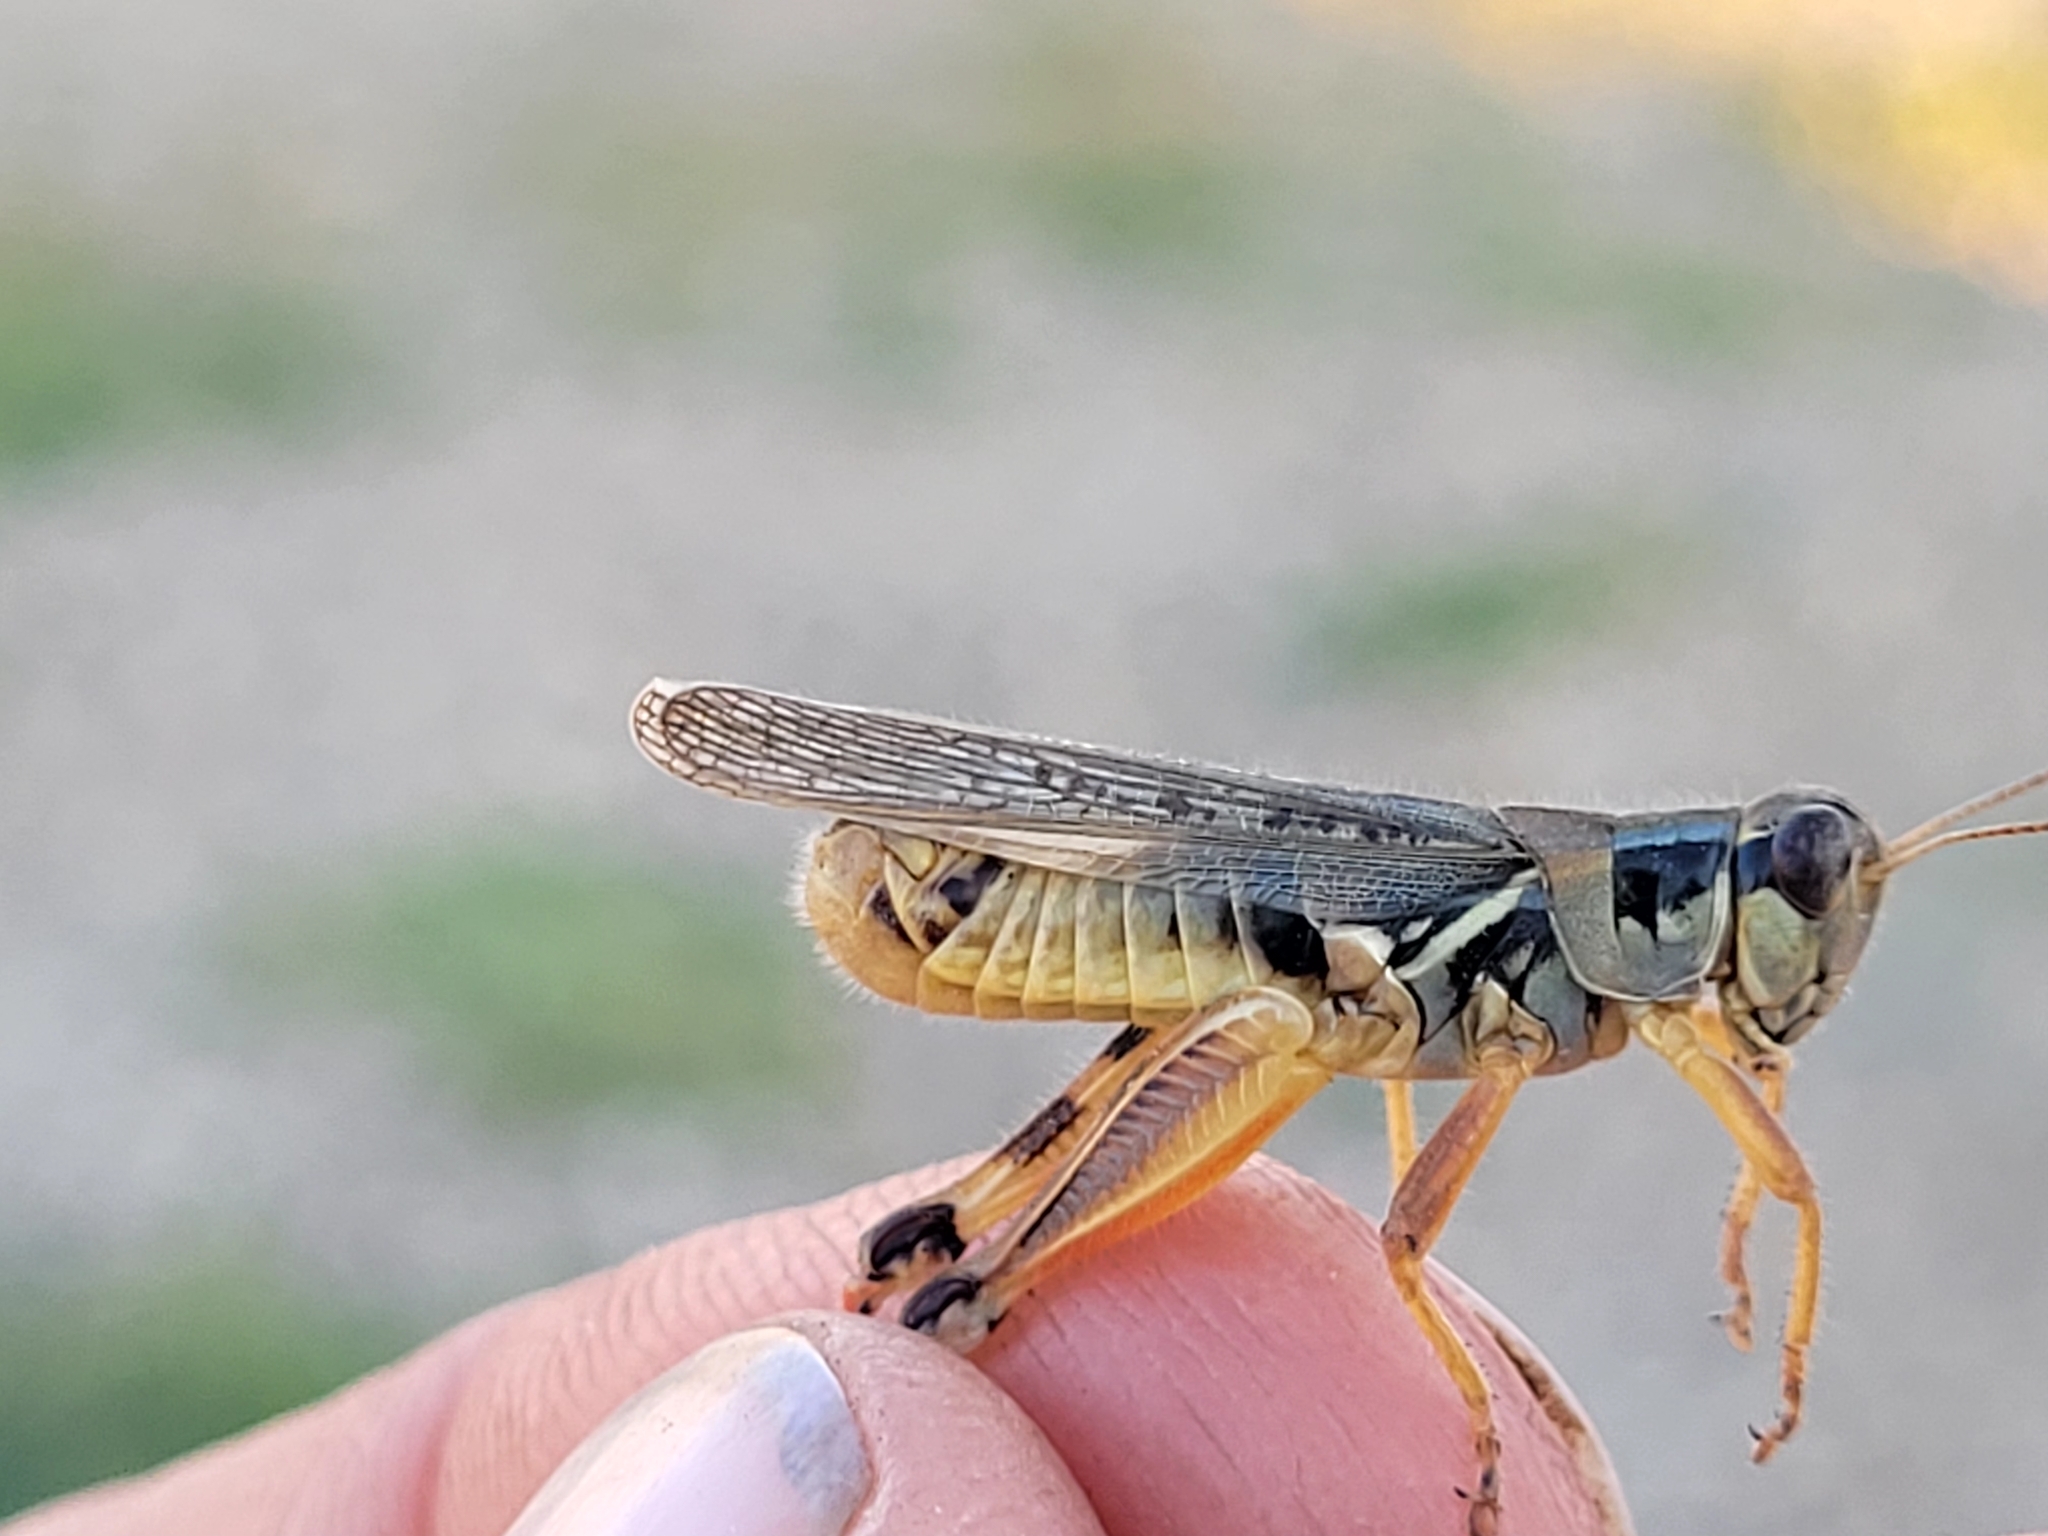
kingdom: Animalia
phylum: Arthropoda
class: Insecta
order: Orthoptera
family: Acrididae
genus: Melanoplus
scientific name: Melanoplus femurrubrum
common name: Red-legged grasshopper
